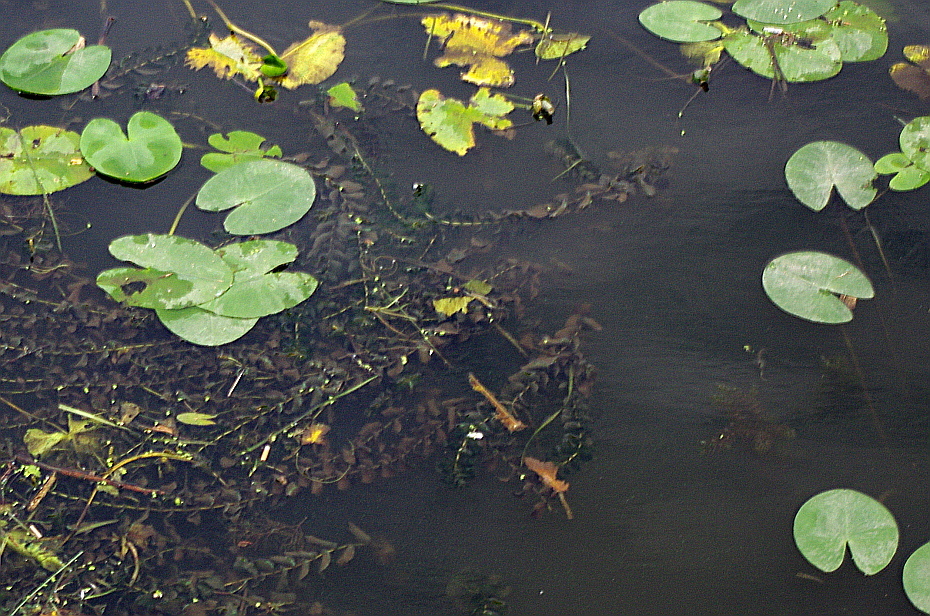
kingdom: Plantae
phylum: Tracheophyta
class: Liliopsida
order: Alismatales
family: Potamogetonaceae
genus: Potamogeton
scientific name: Potamogeton perfoliatus
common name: Perfoliate pondweed
